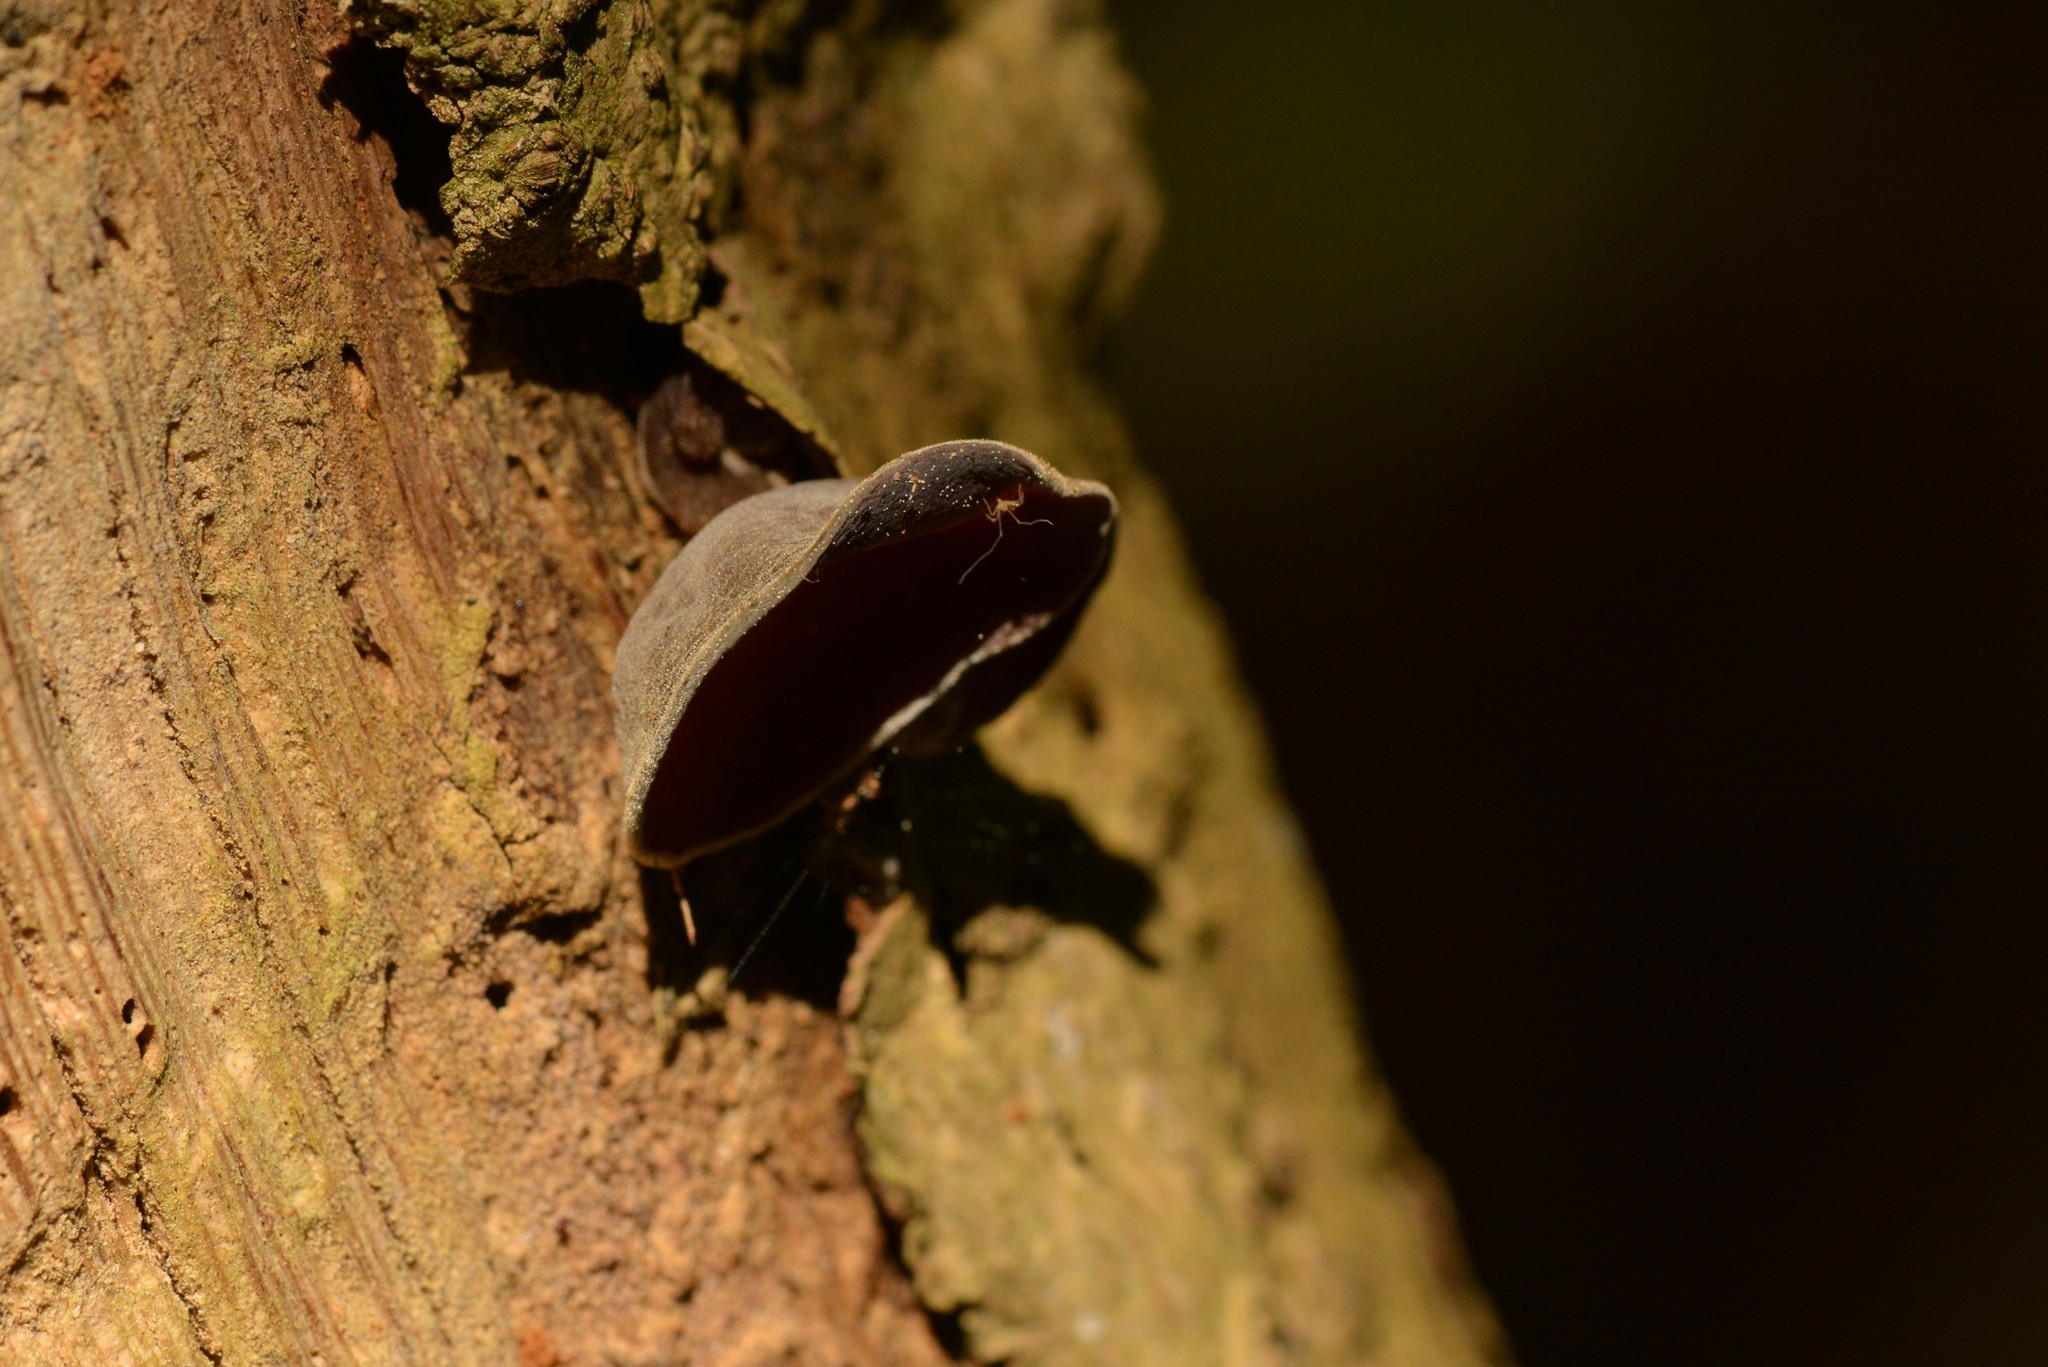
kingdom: Fungi
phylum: Basidiomycota
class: Agaricomycetes
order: Auriculariales
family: Auriculariaceae
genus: Auricularia
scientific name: Auricularia cornea
